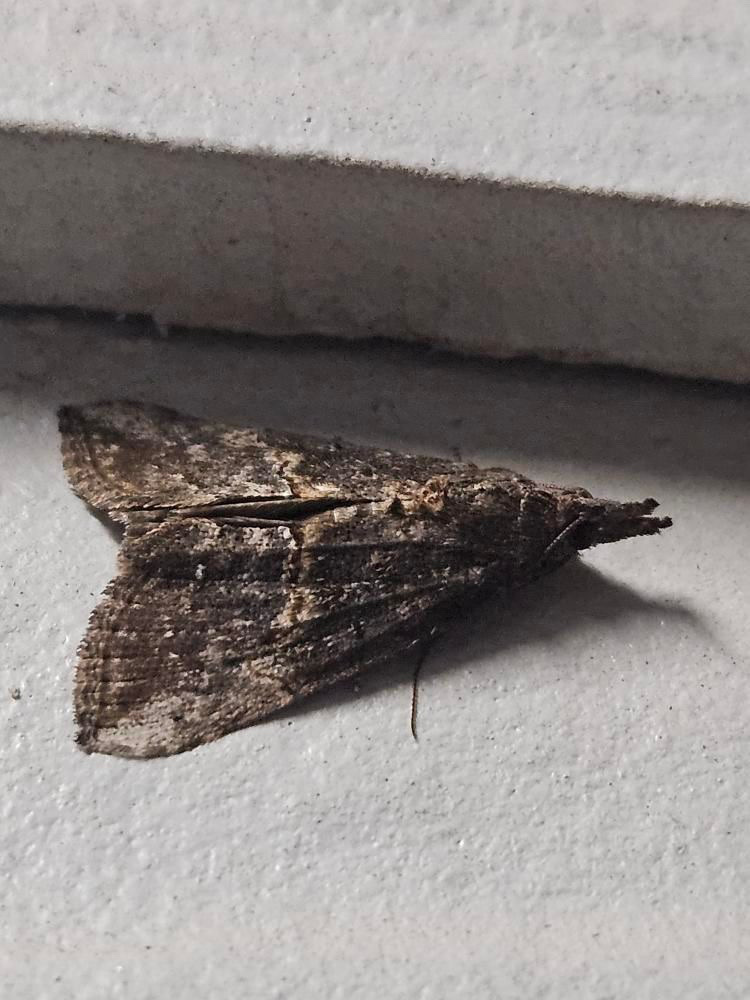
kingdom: Animalia
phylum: Arthropoda
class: Insecta
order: Lepidoptera
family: Erebidae
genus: Hypena
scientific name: Hypena scabra
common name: Green cloverworm
